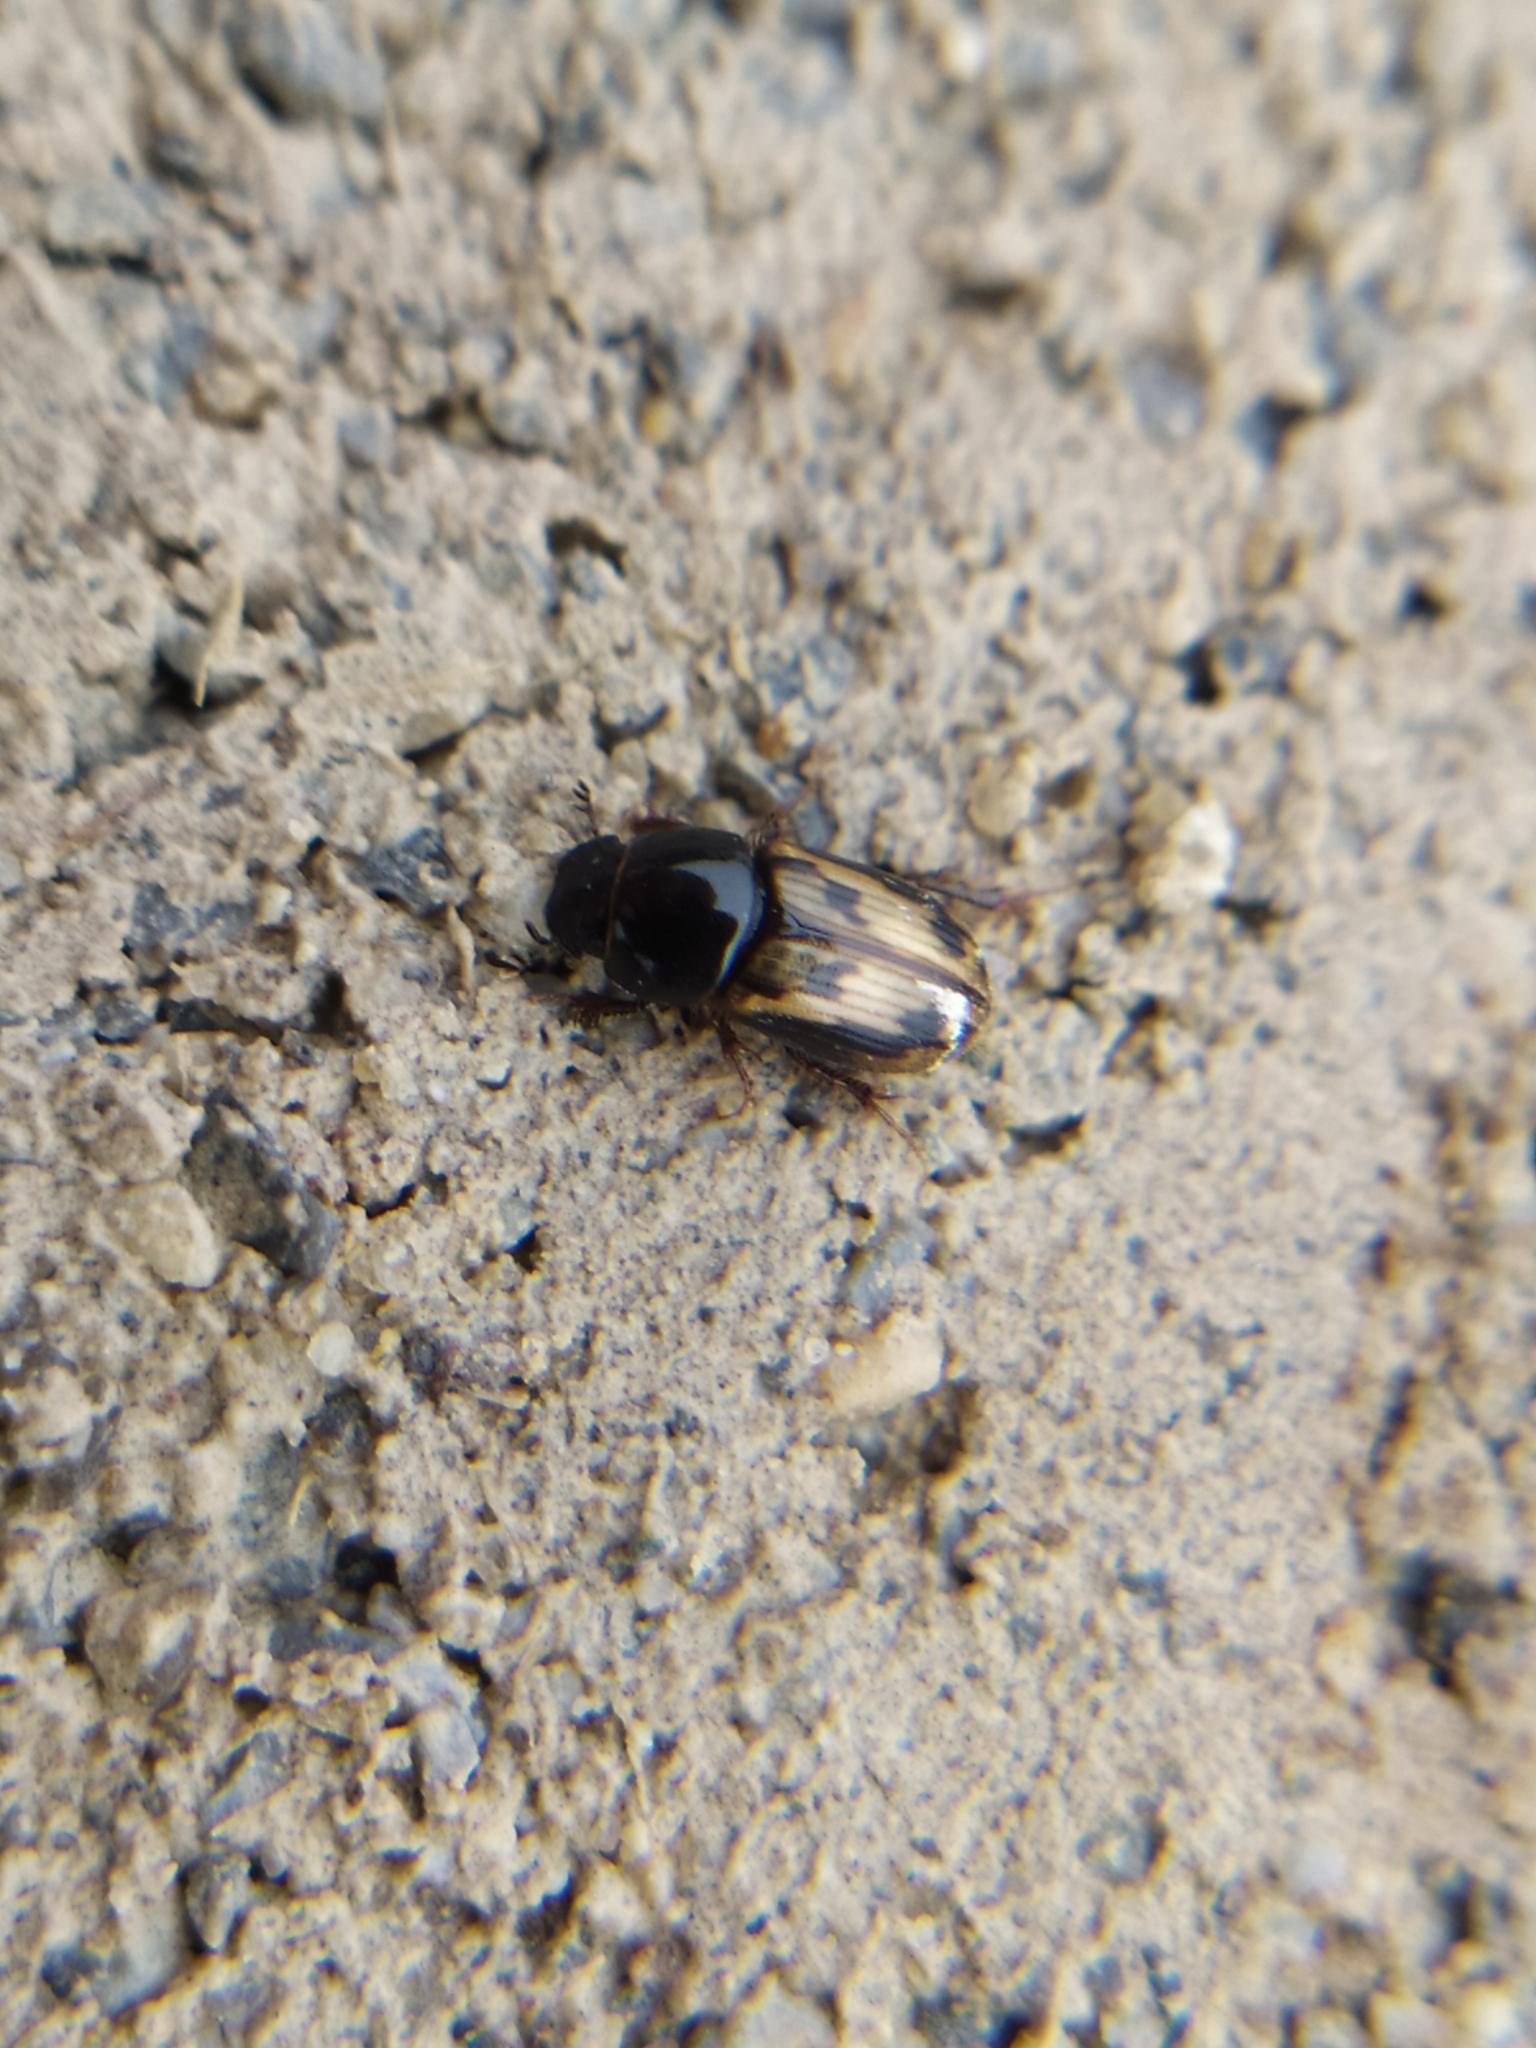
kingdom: Animalia
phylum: Arthropoda
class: Insecta
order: Coleoptera
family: Scarabaeidae
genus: Chilothorax
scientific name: Chilothorax distinctus
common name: Maculated dung beetle
